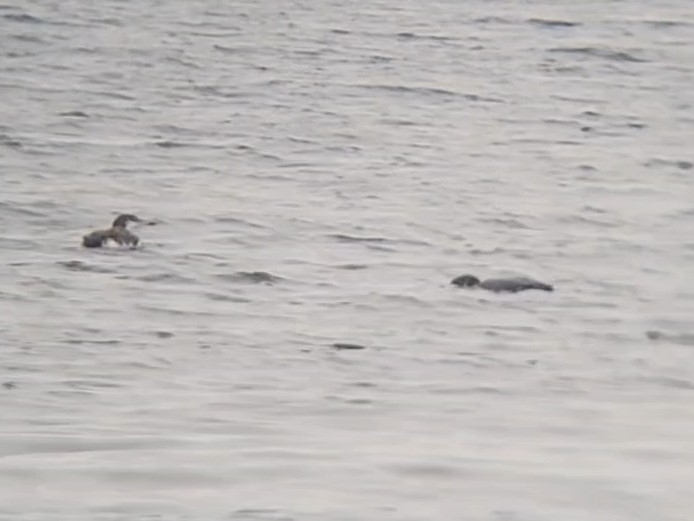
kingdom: Animalia
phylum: Chordata
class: Aves
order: Gaviiformes
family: Gaviidae
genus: Gavia
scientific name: Gavia immer
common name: Common loon
